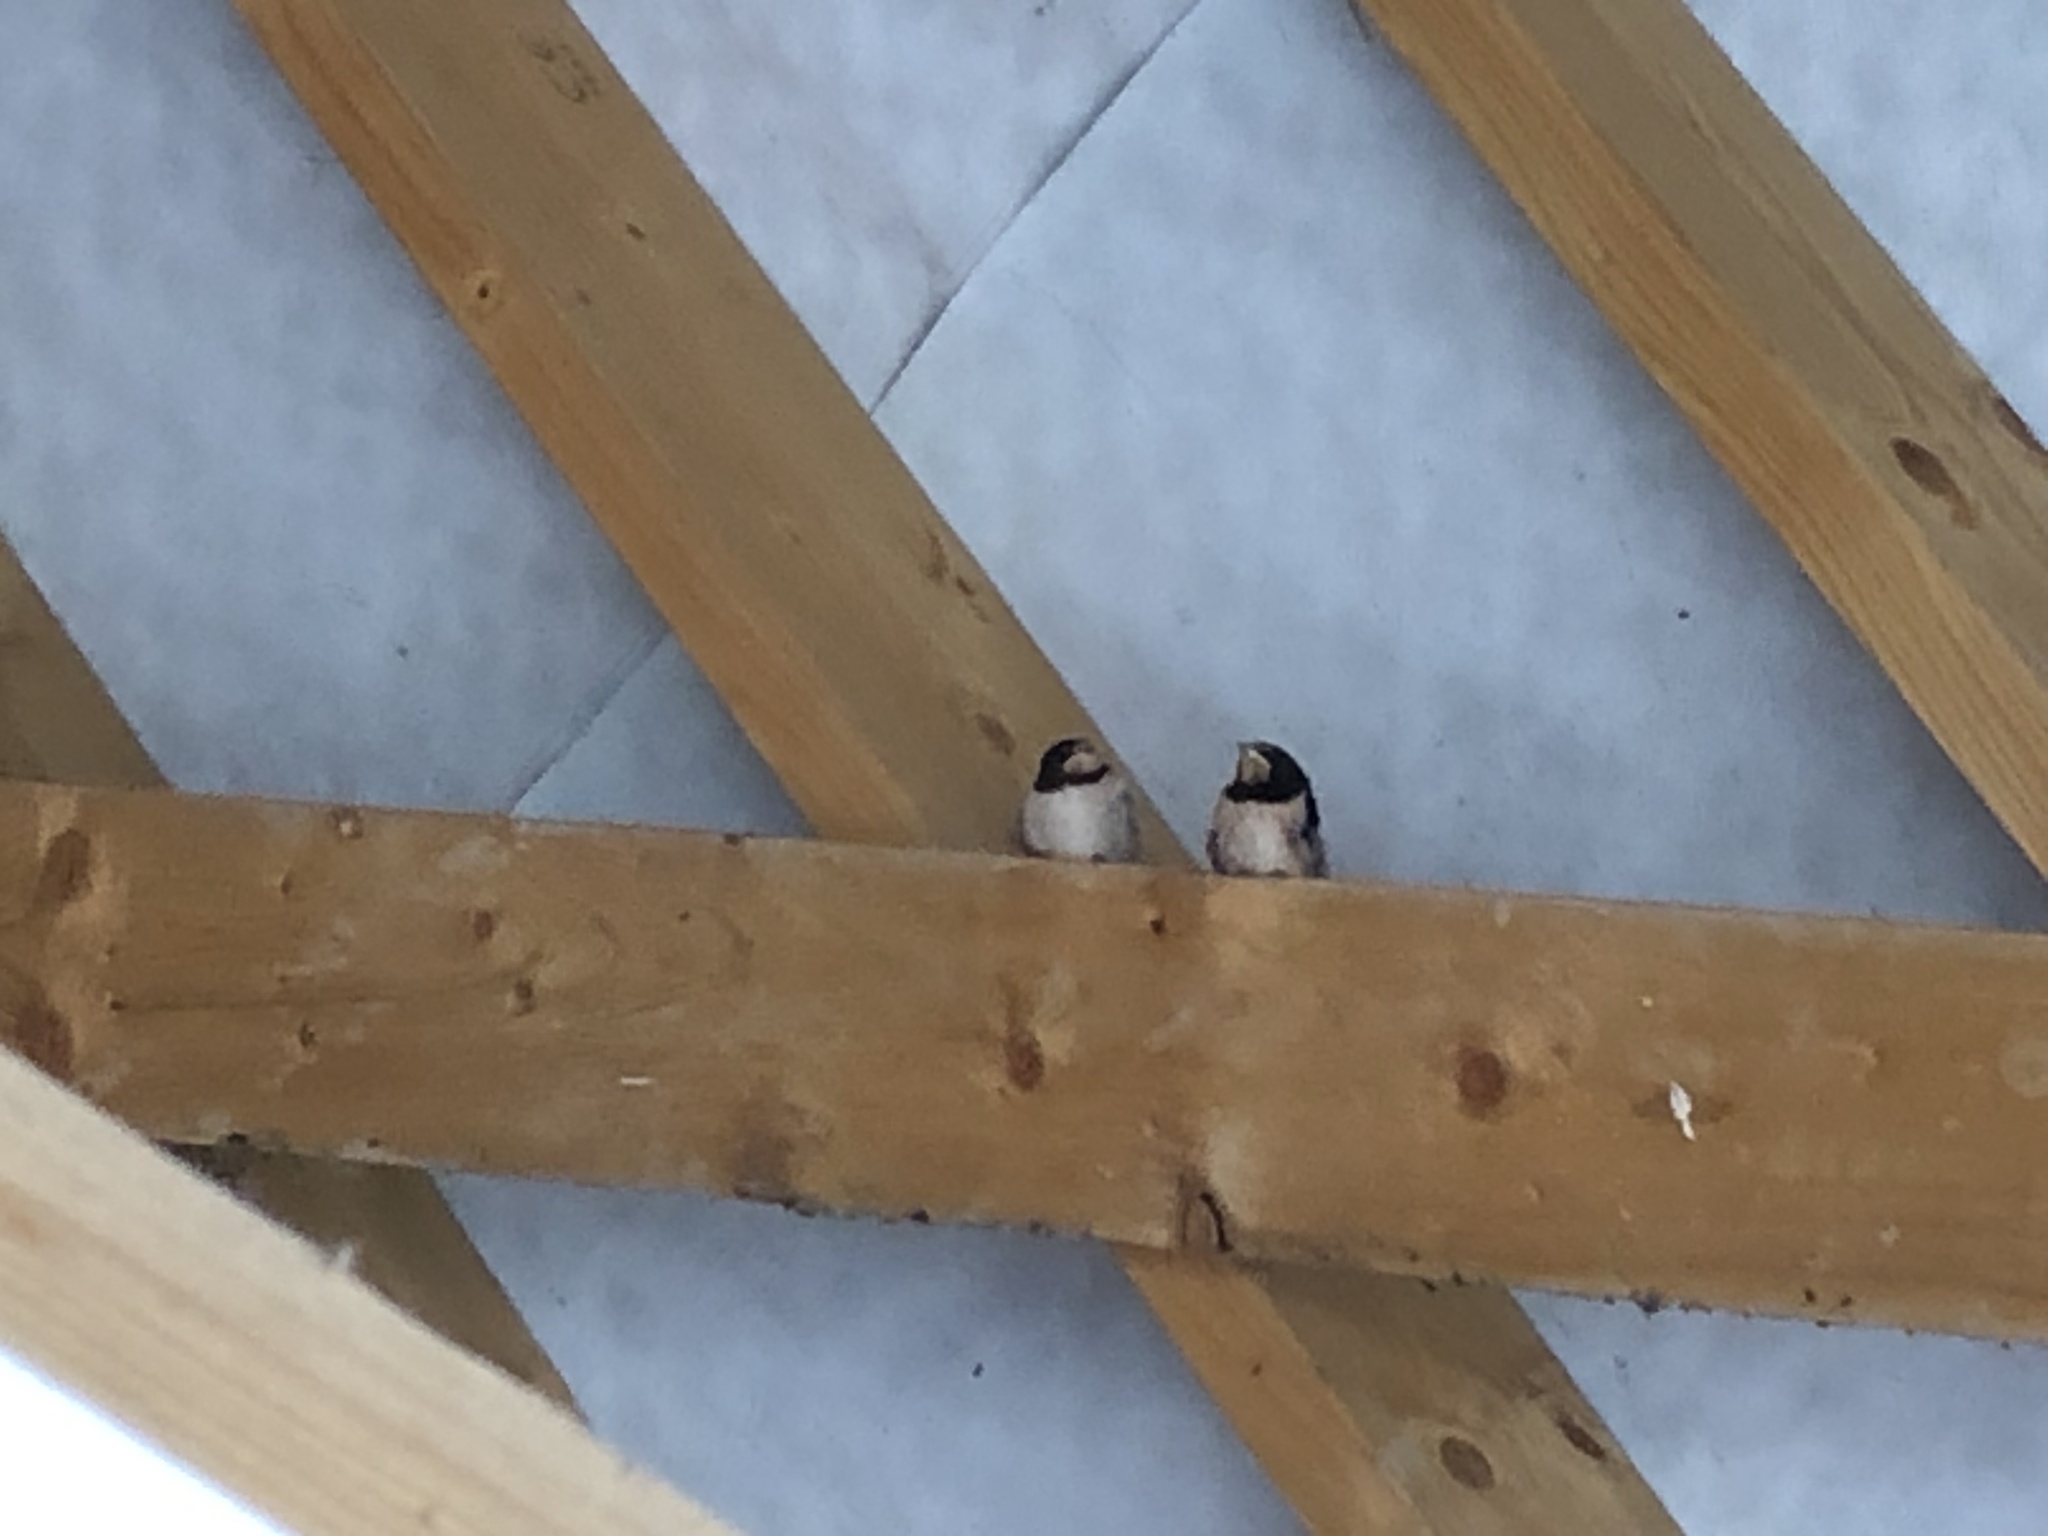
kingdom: Animalia
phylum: Chordata
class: Aves
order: Passeriformes
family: Hirundinidae
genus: Hirundo
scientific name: Hirundo rustica
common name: Barn swallow
